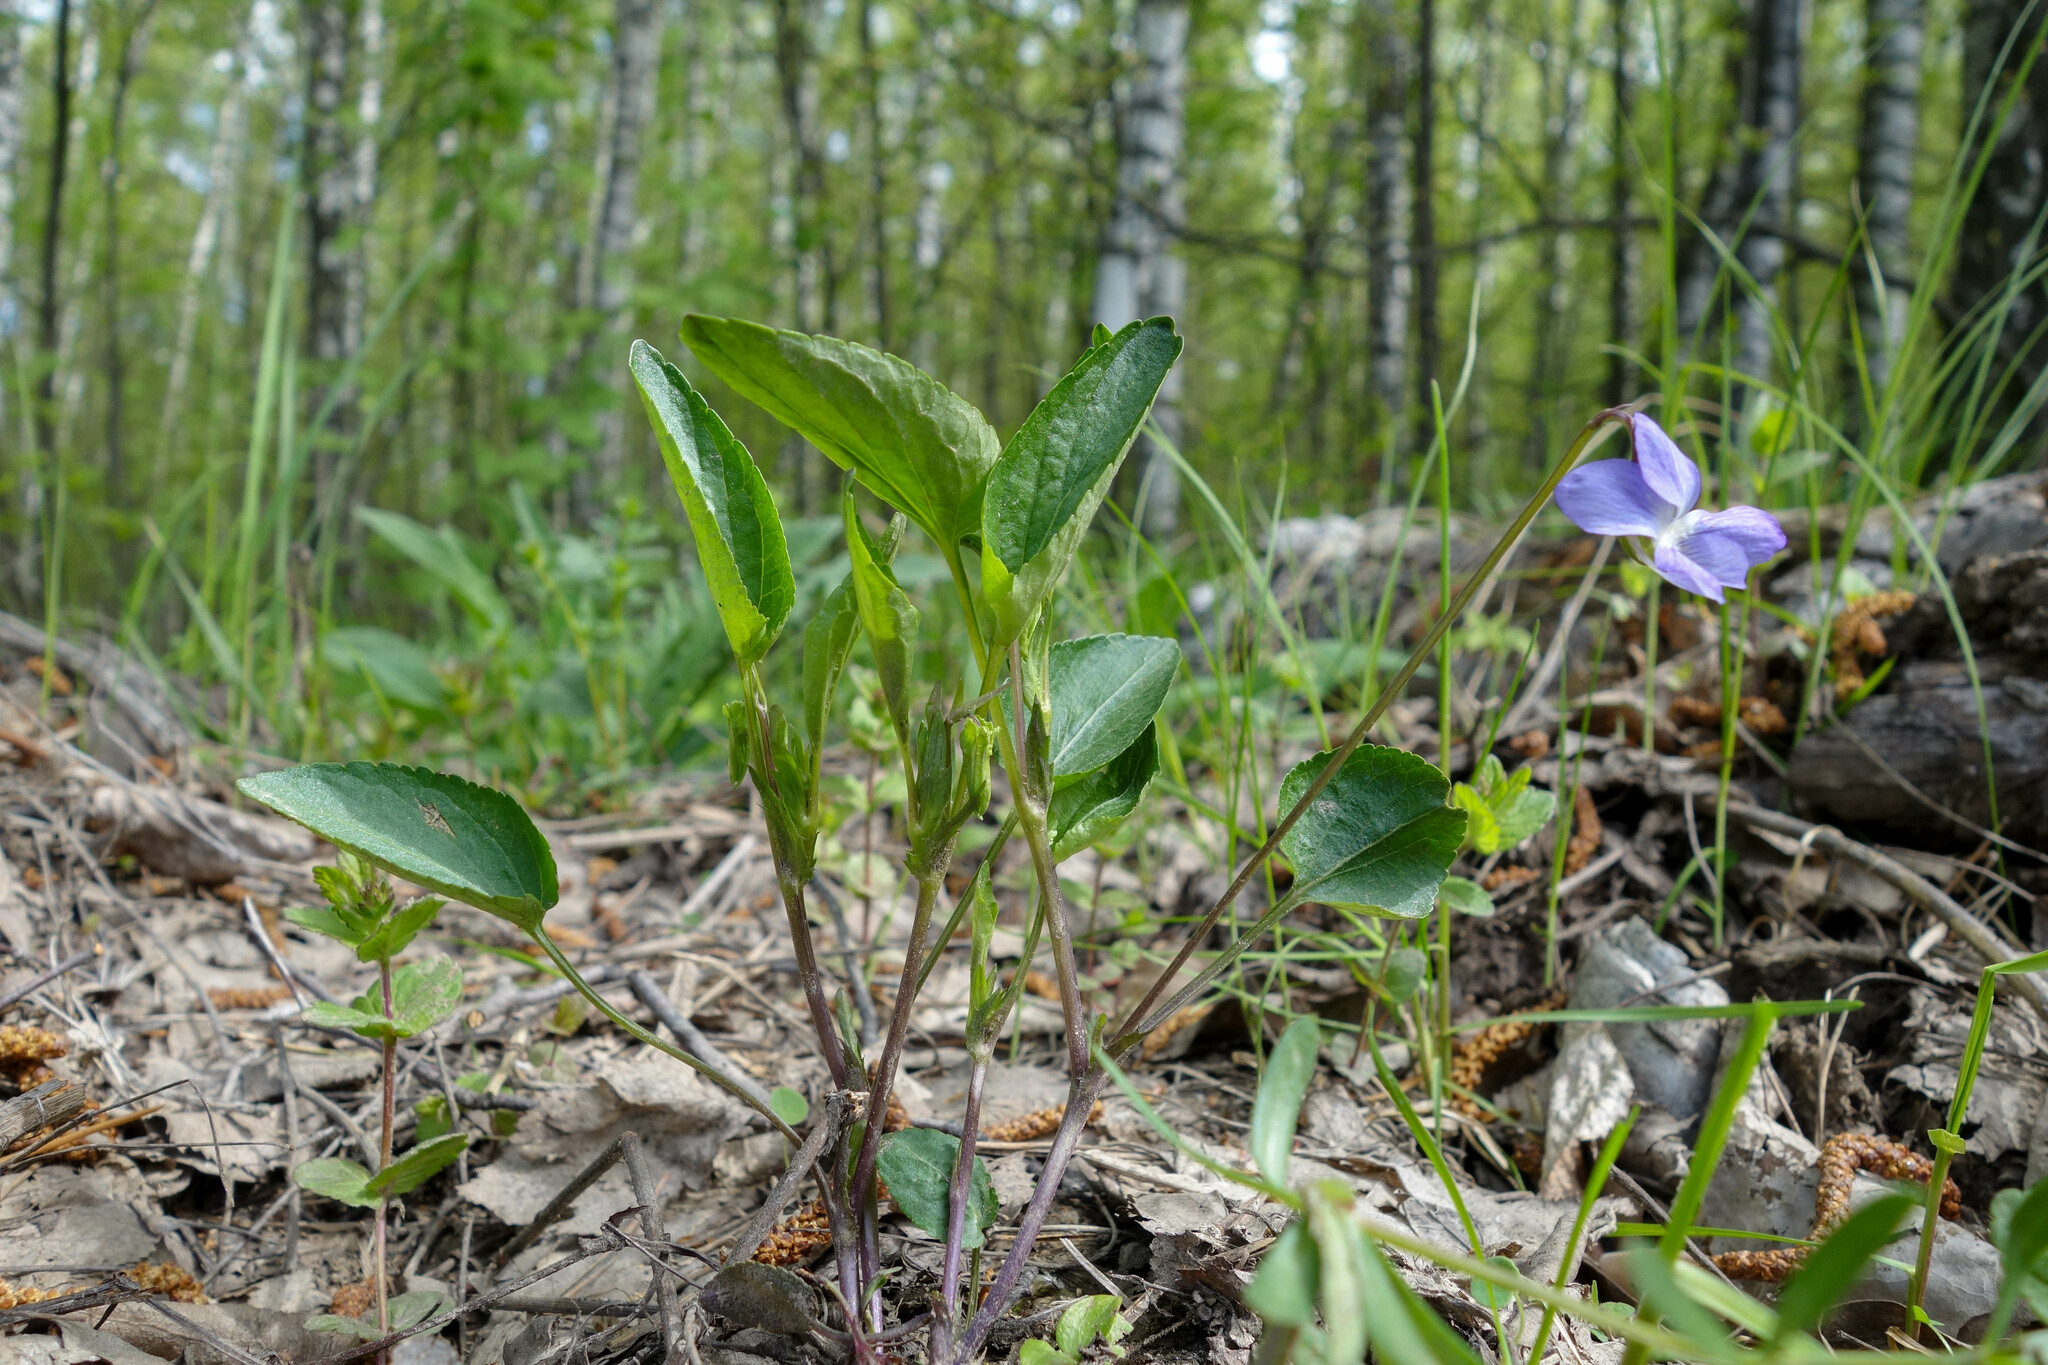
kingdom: Plantae
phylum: Tracheophyta
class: Magnoliopsida
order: Malpighiales
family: Violaceae
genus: Viola
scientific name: Viola
